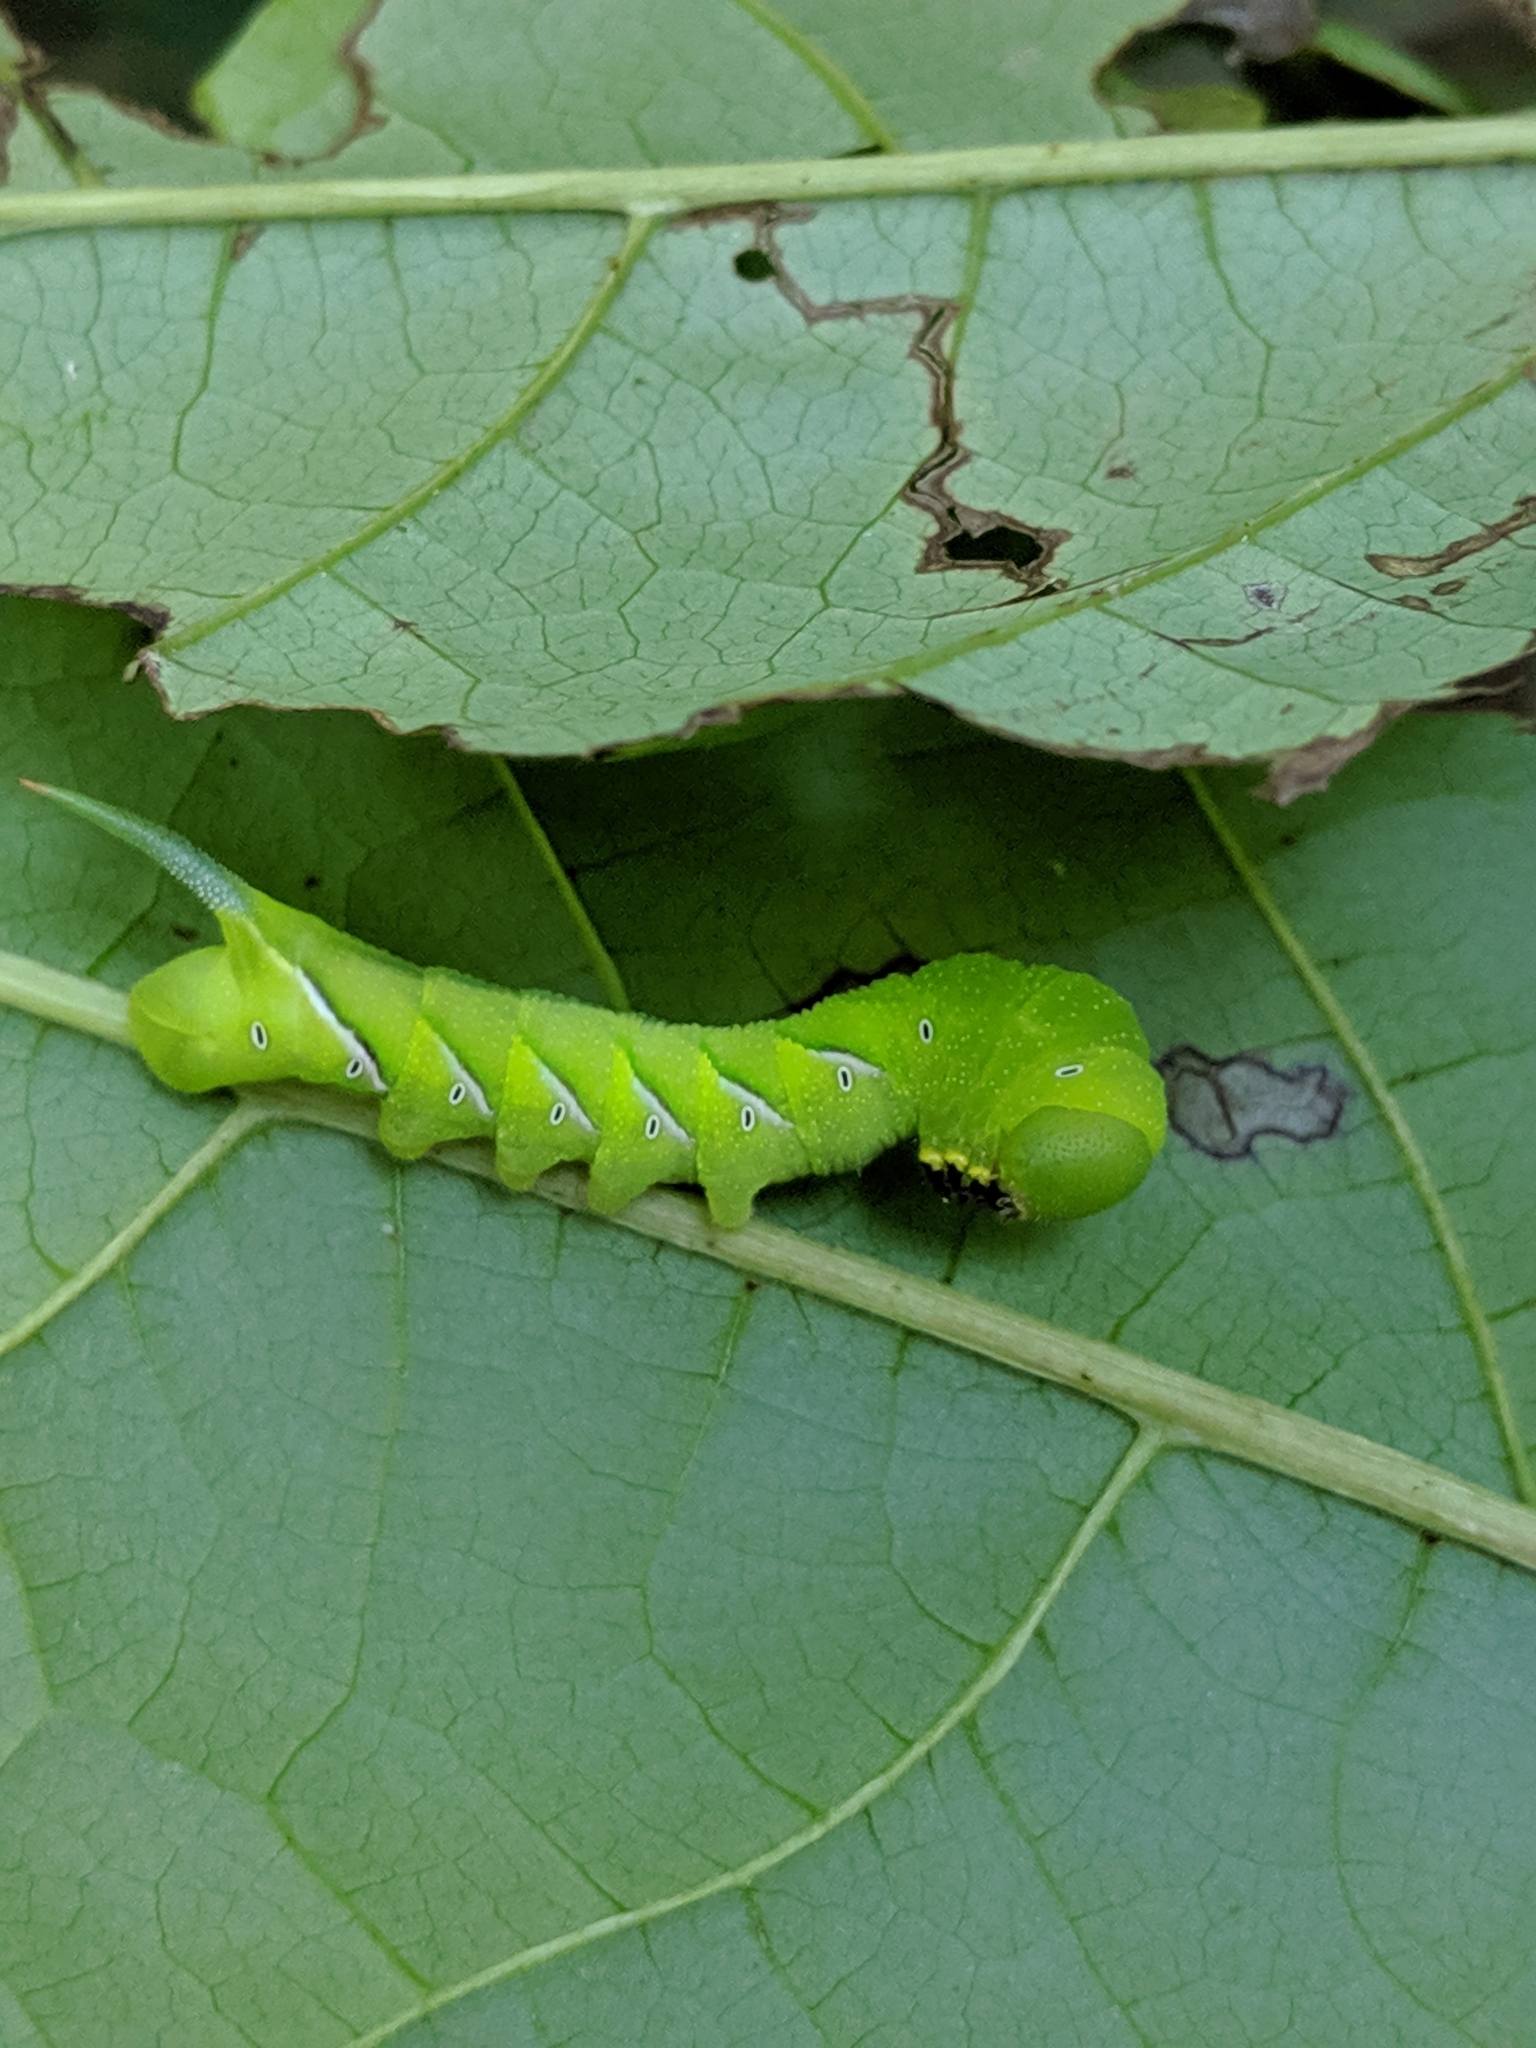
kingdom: Animalia
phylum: Arthropoda
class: Insecta
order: Lepidoptera
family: Sphingidae
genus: Dolba
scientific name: Dolba hyloeus
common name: Pawpaw sphinx
